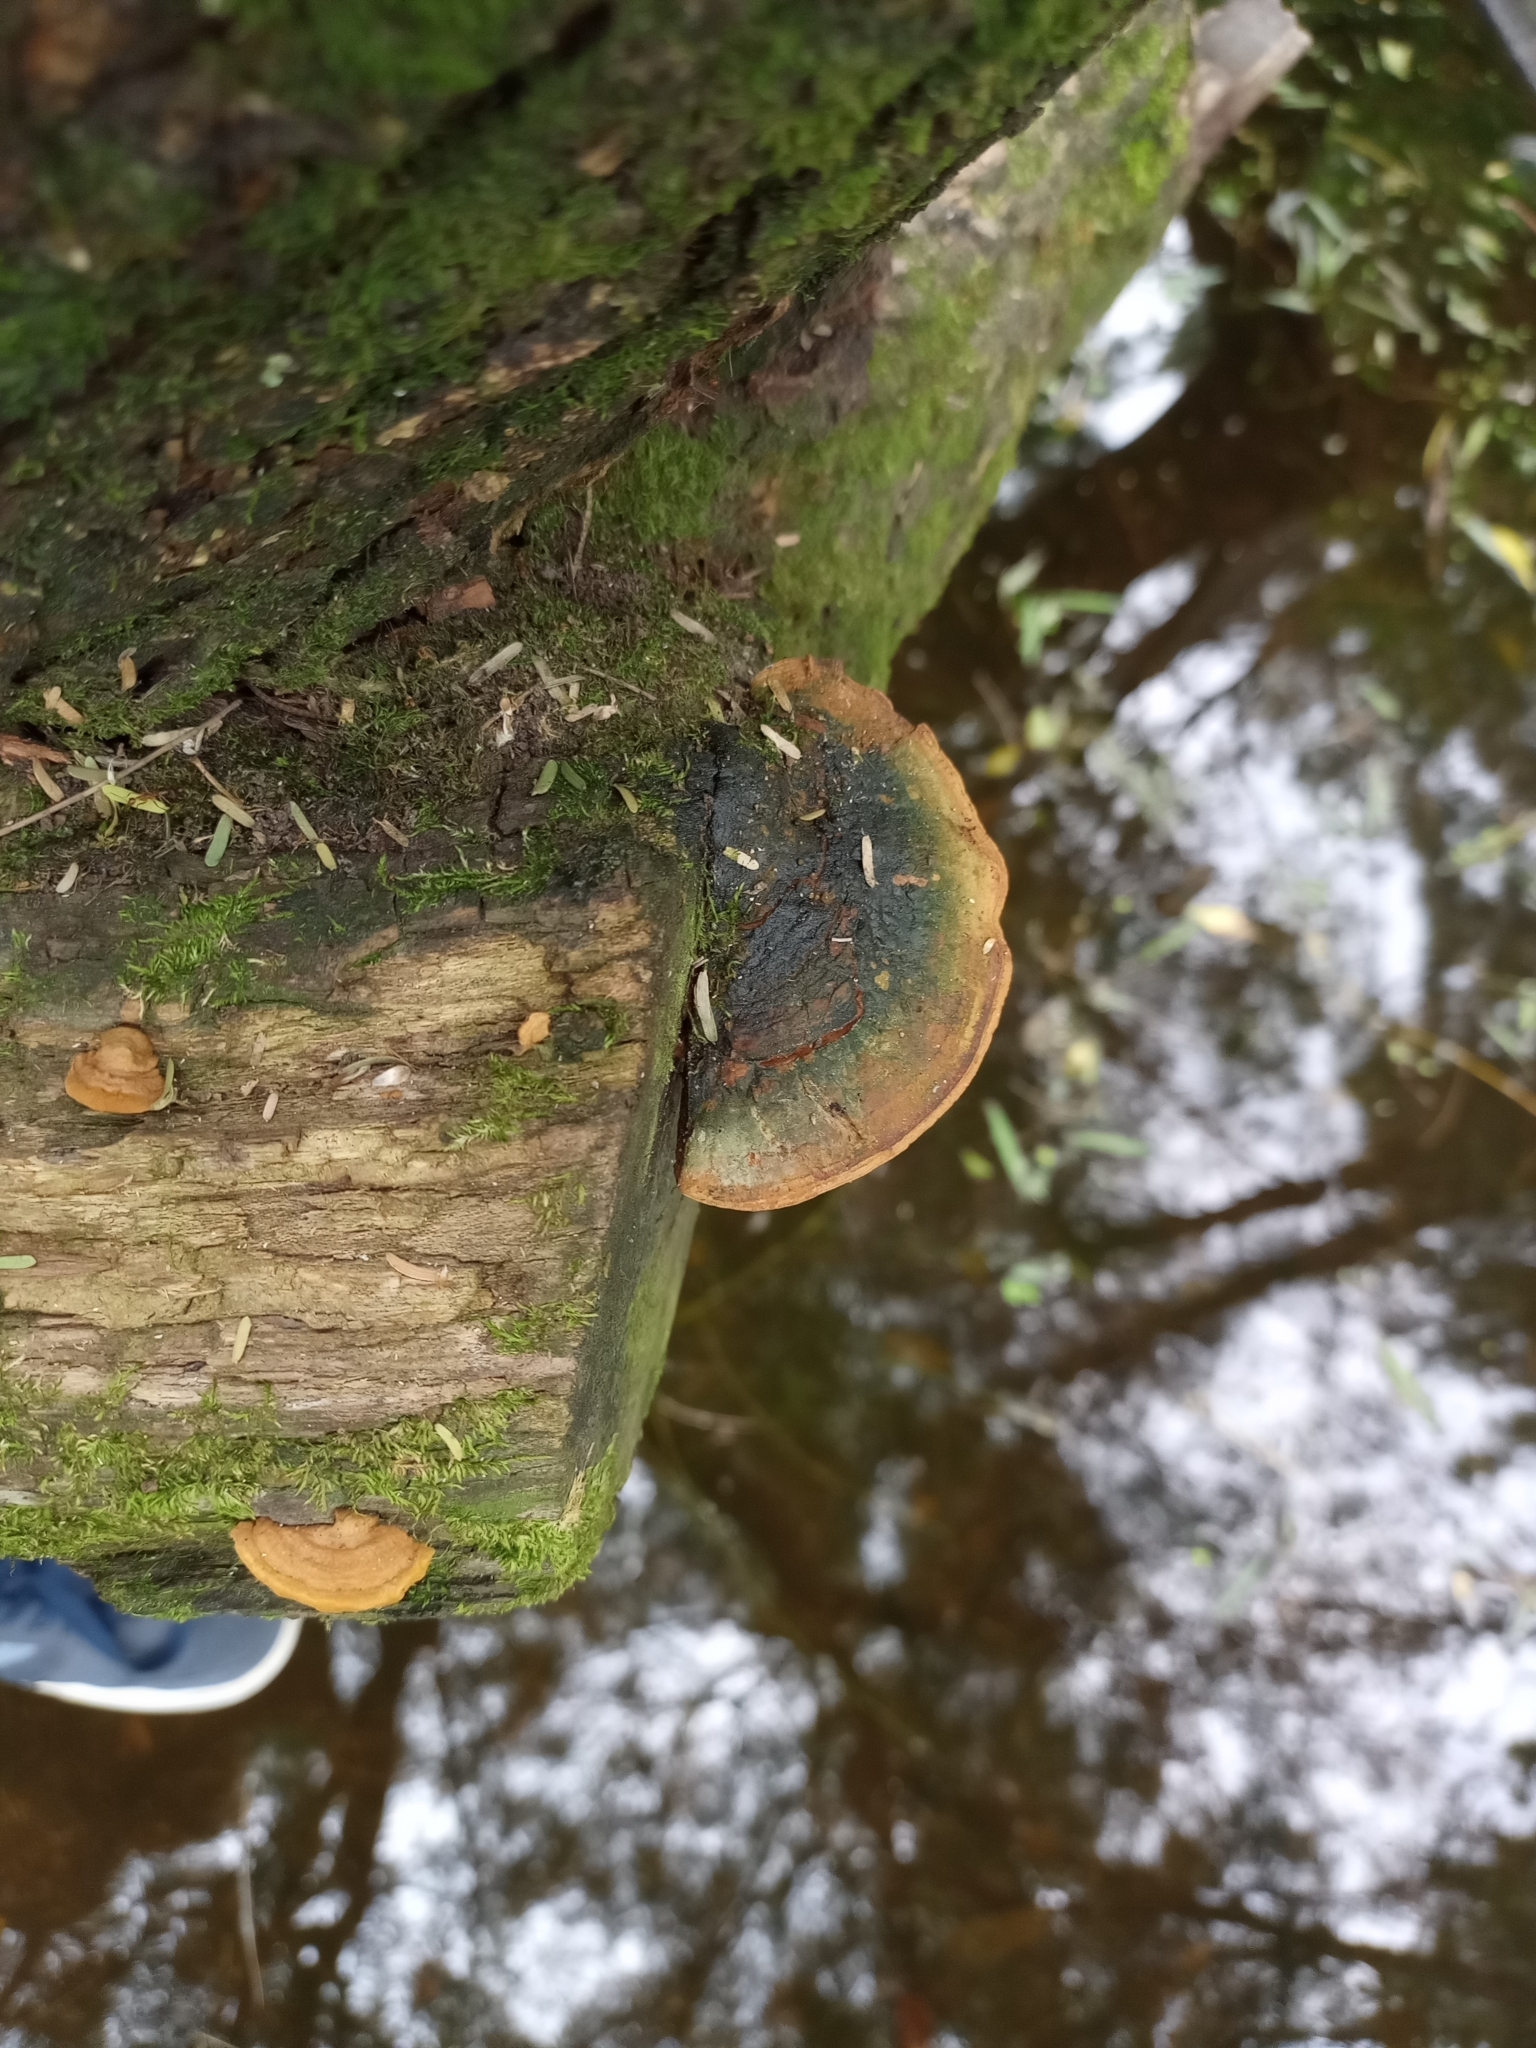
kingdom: Fungi
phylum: Basidiomycota
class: Agaricomycetes
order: Hymenochaetales
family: Hymenochaetaceae
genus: Phellinus
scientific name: Phellinus robiniae
